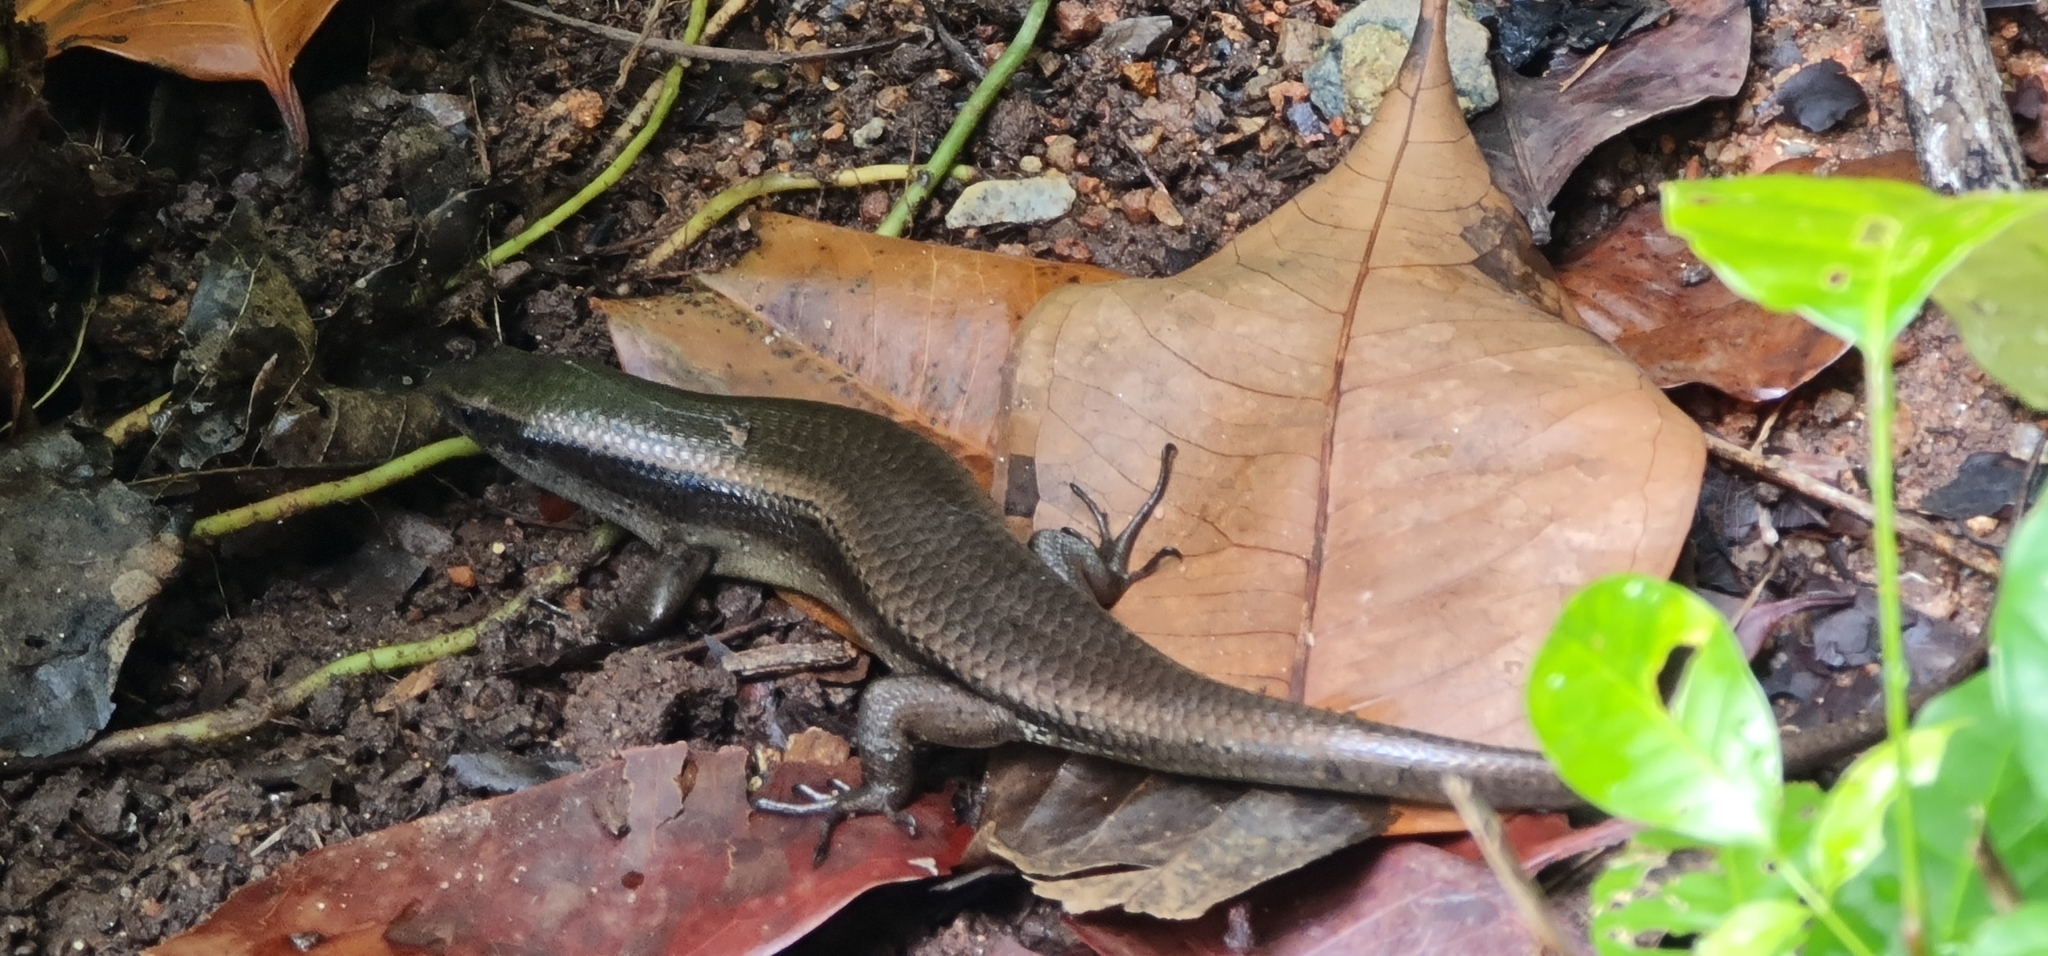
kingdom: Animalia
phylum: Chordata
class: Squamata
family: Scincidae
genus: Eutropis
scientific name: Eutropis multifasciata
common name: Common mabuya
